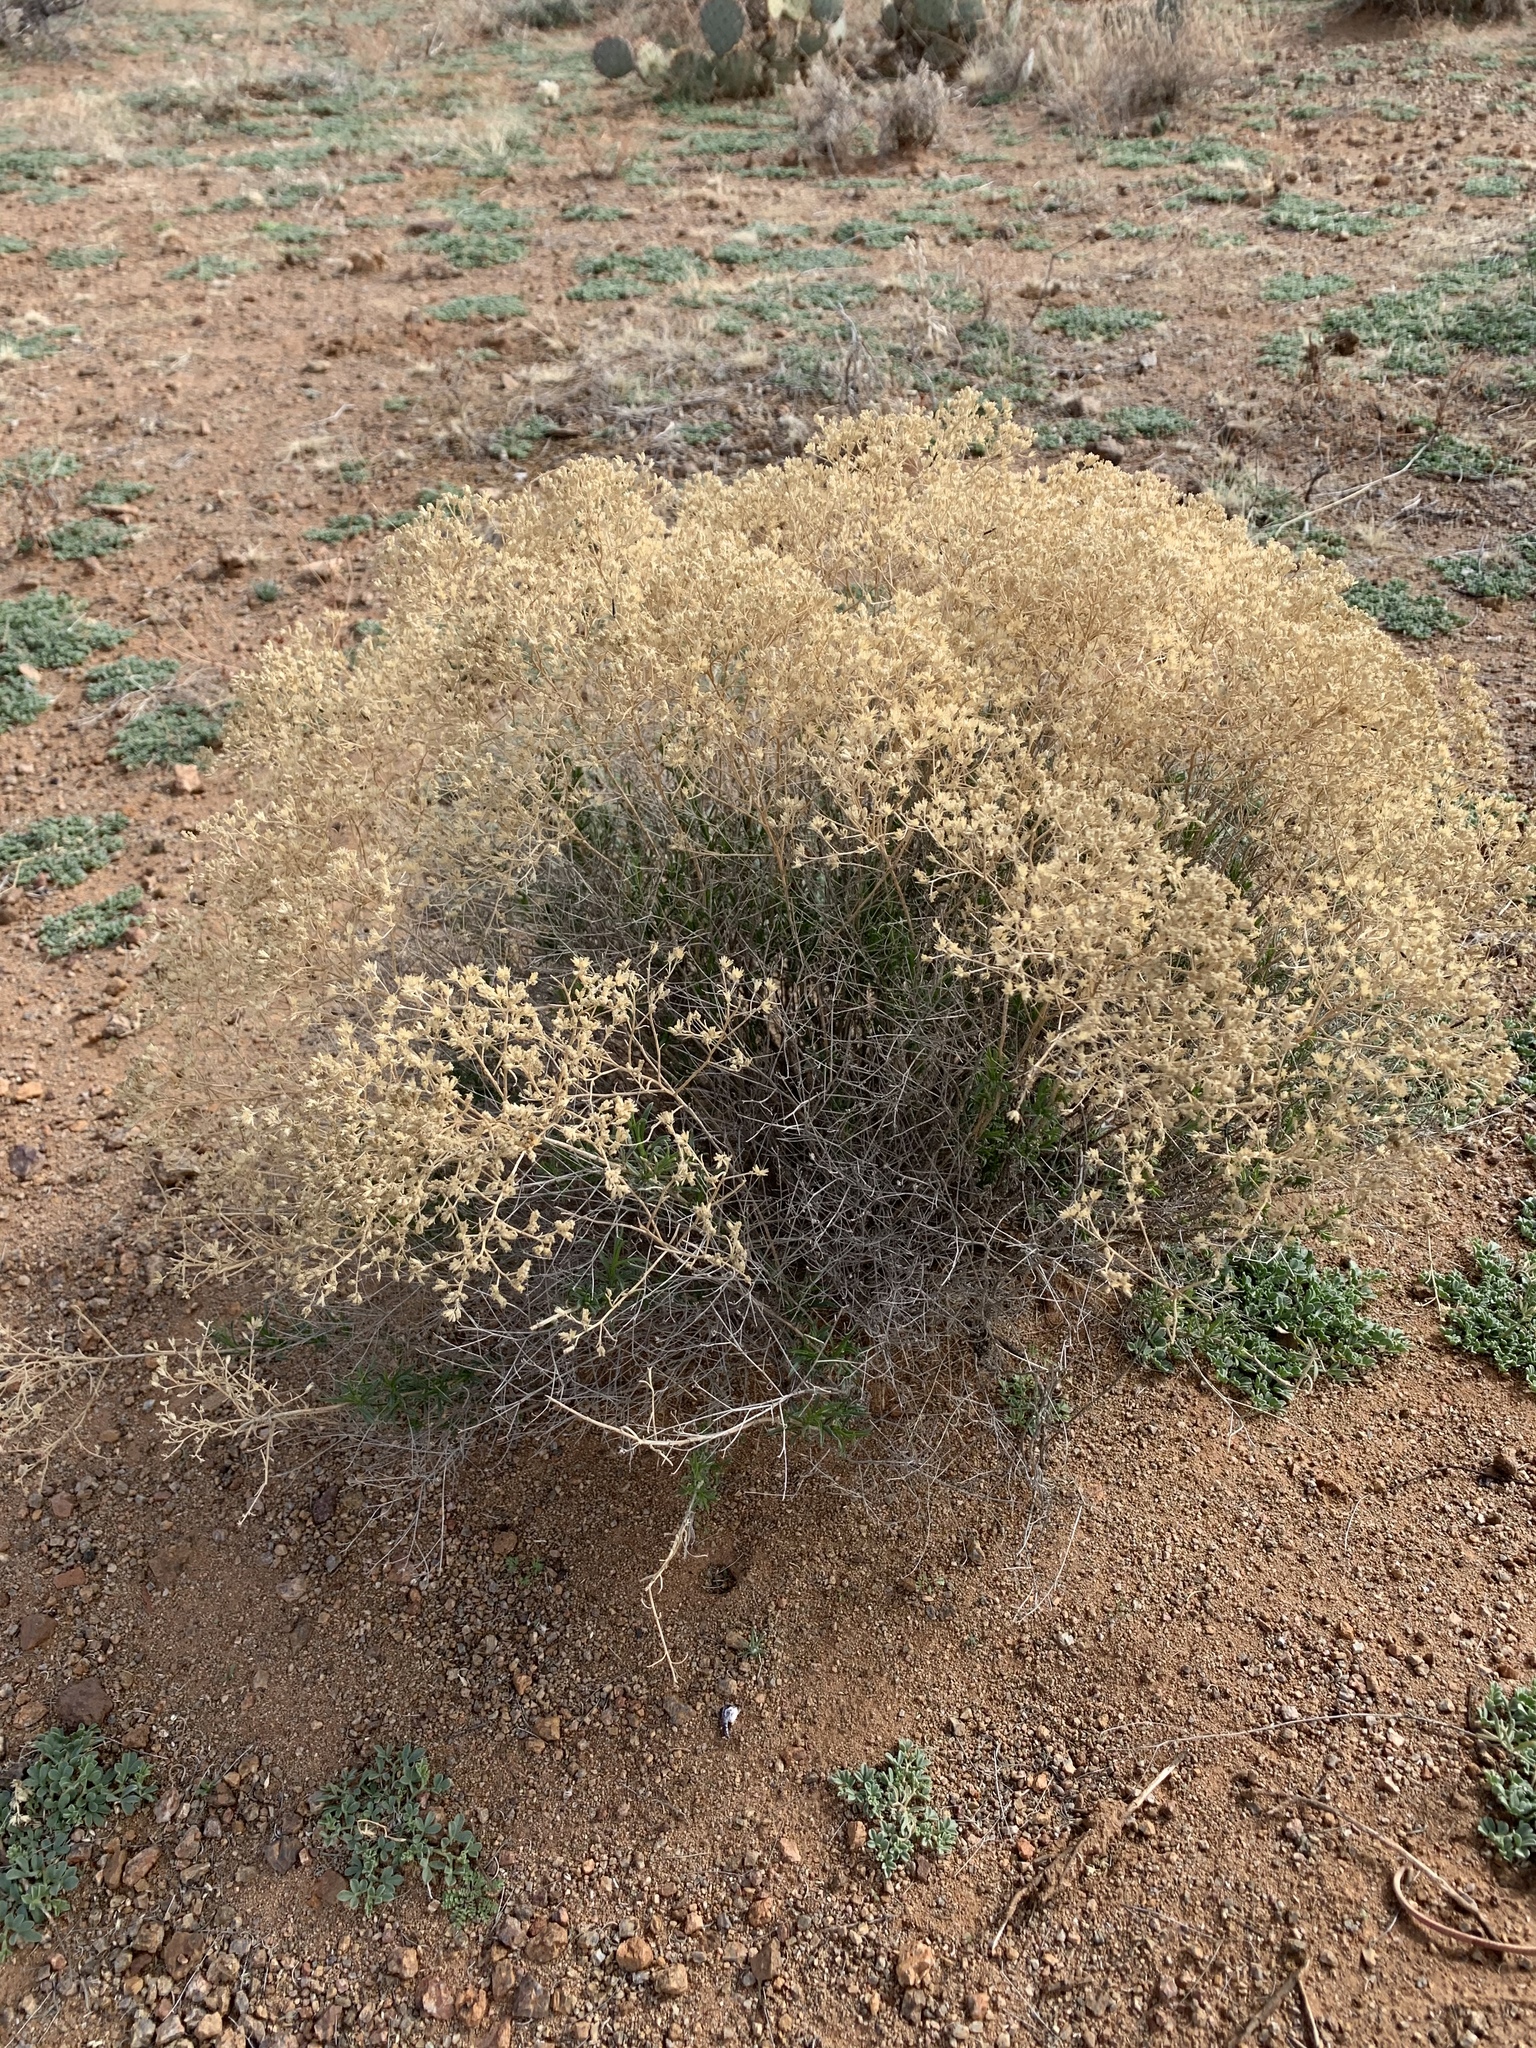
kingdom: Plantae
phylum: Tracheophyta
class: Magnoliopsida
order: Asterales
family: Asteraceae
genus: Gutierrezia
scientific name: Gutierrezia sarothrae
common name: Broom snakeweed
